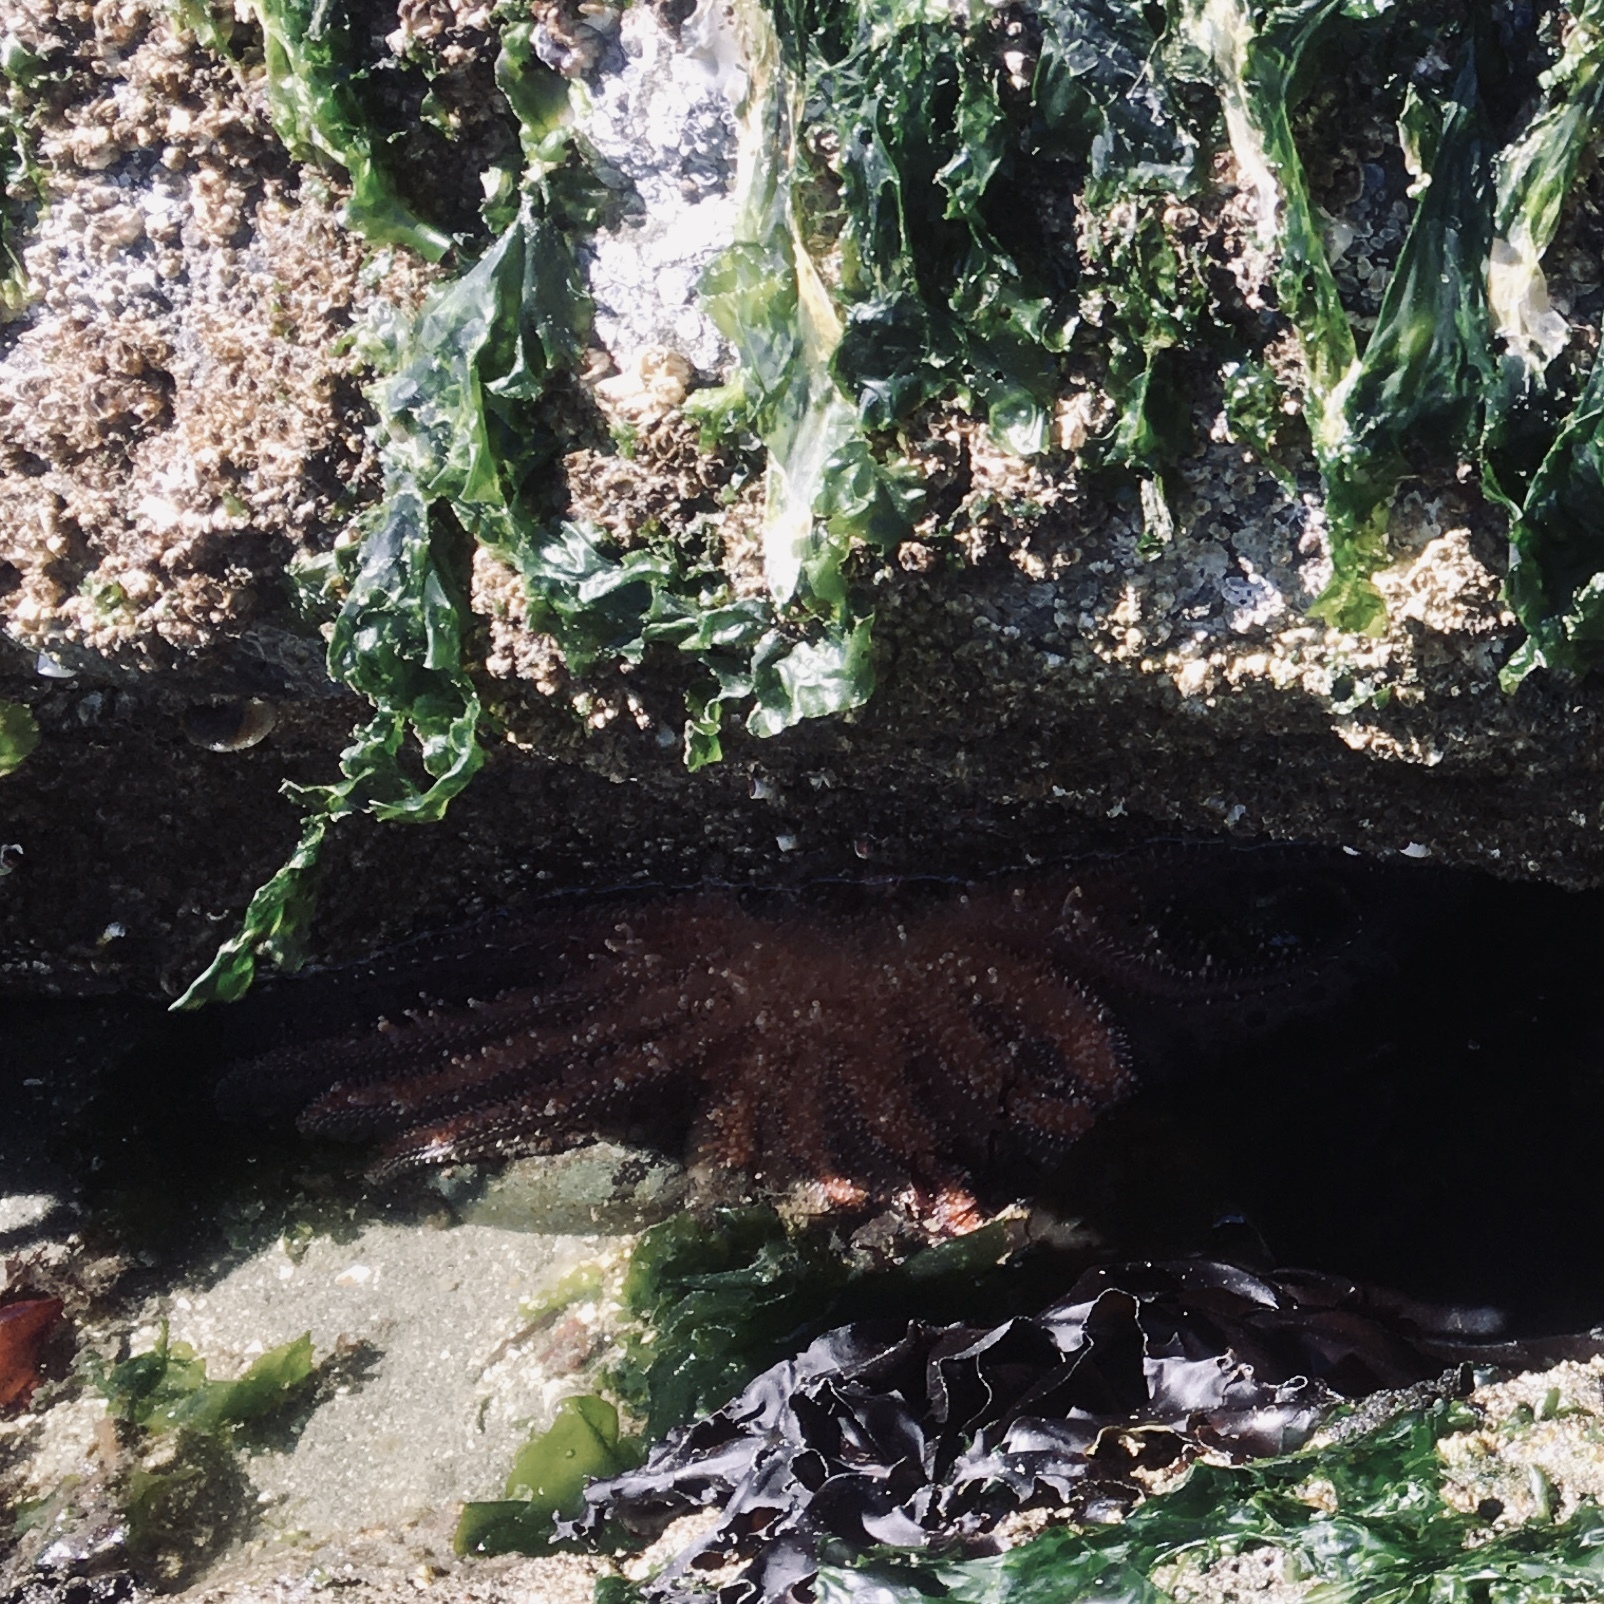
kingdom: Animalia
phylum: Echinodermata
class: Asteroidea
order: Forcipulatida
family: Asteriidae
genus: Pycnopodia
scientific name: Pycnopodia helianthoides
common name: Rag mop
